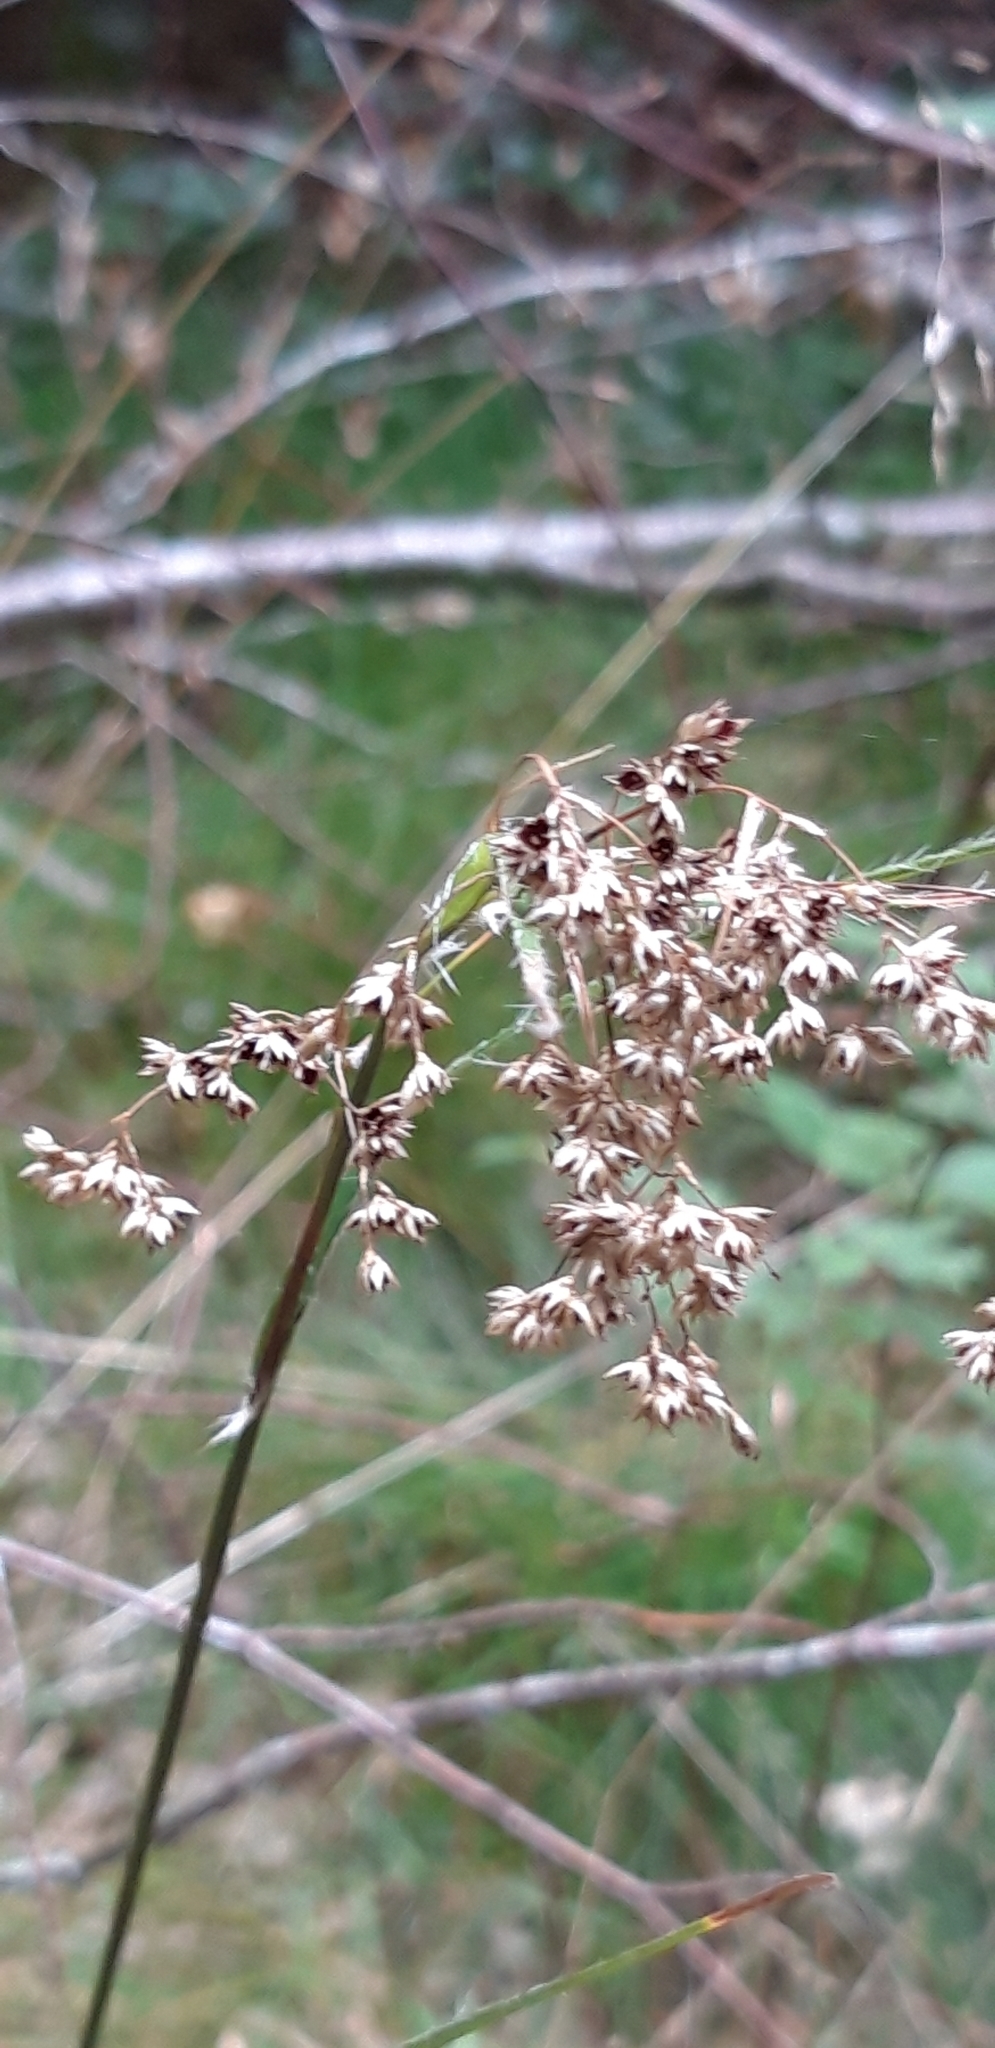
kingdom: Plantae
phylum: Tracheophyta
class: Liliopsida
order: Poales
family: Juncaceae
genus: Luzula
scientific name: Luzula sylvatica
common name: Great wood-rush
